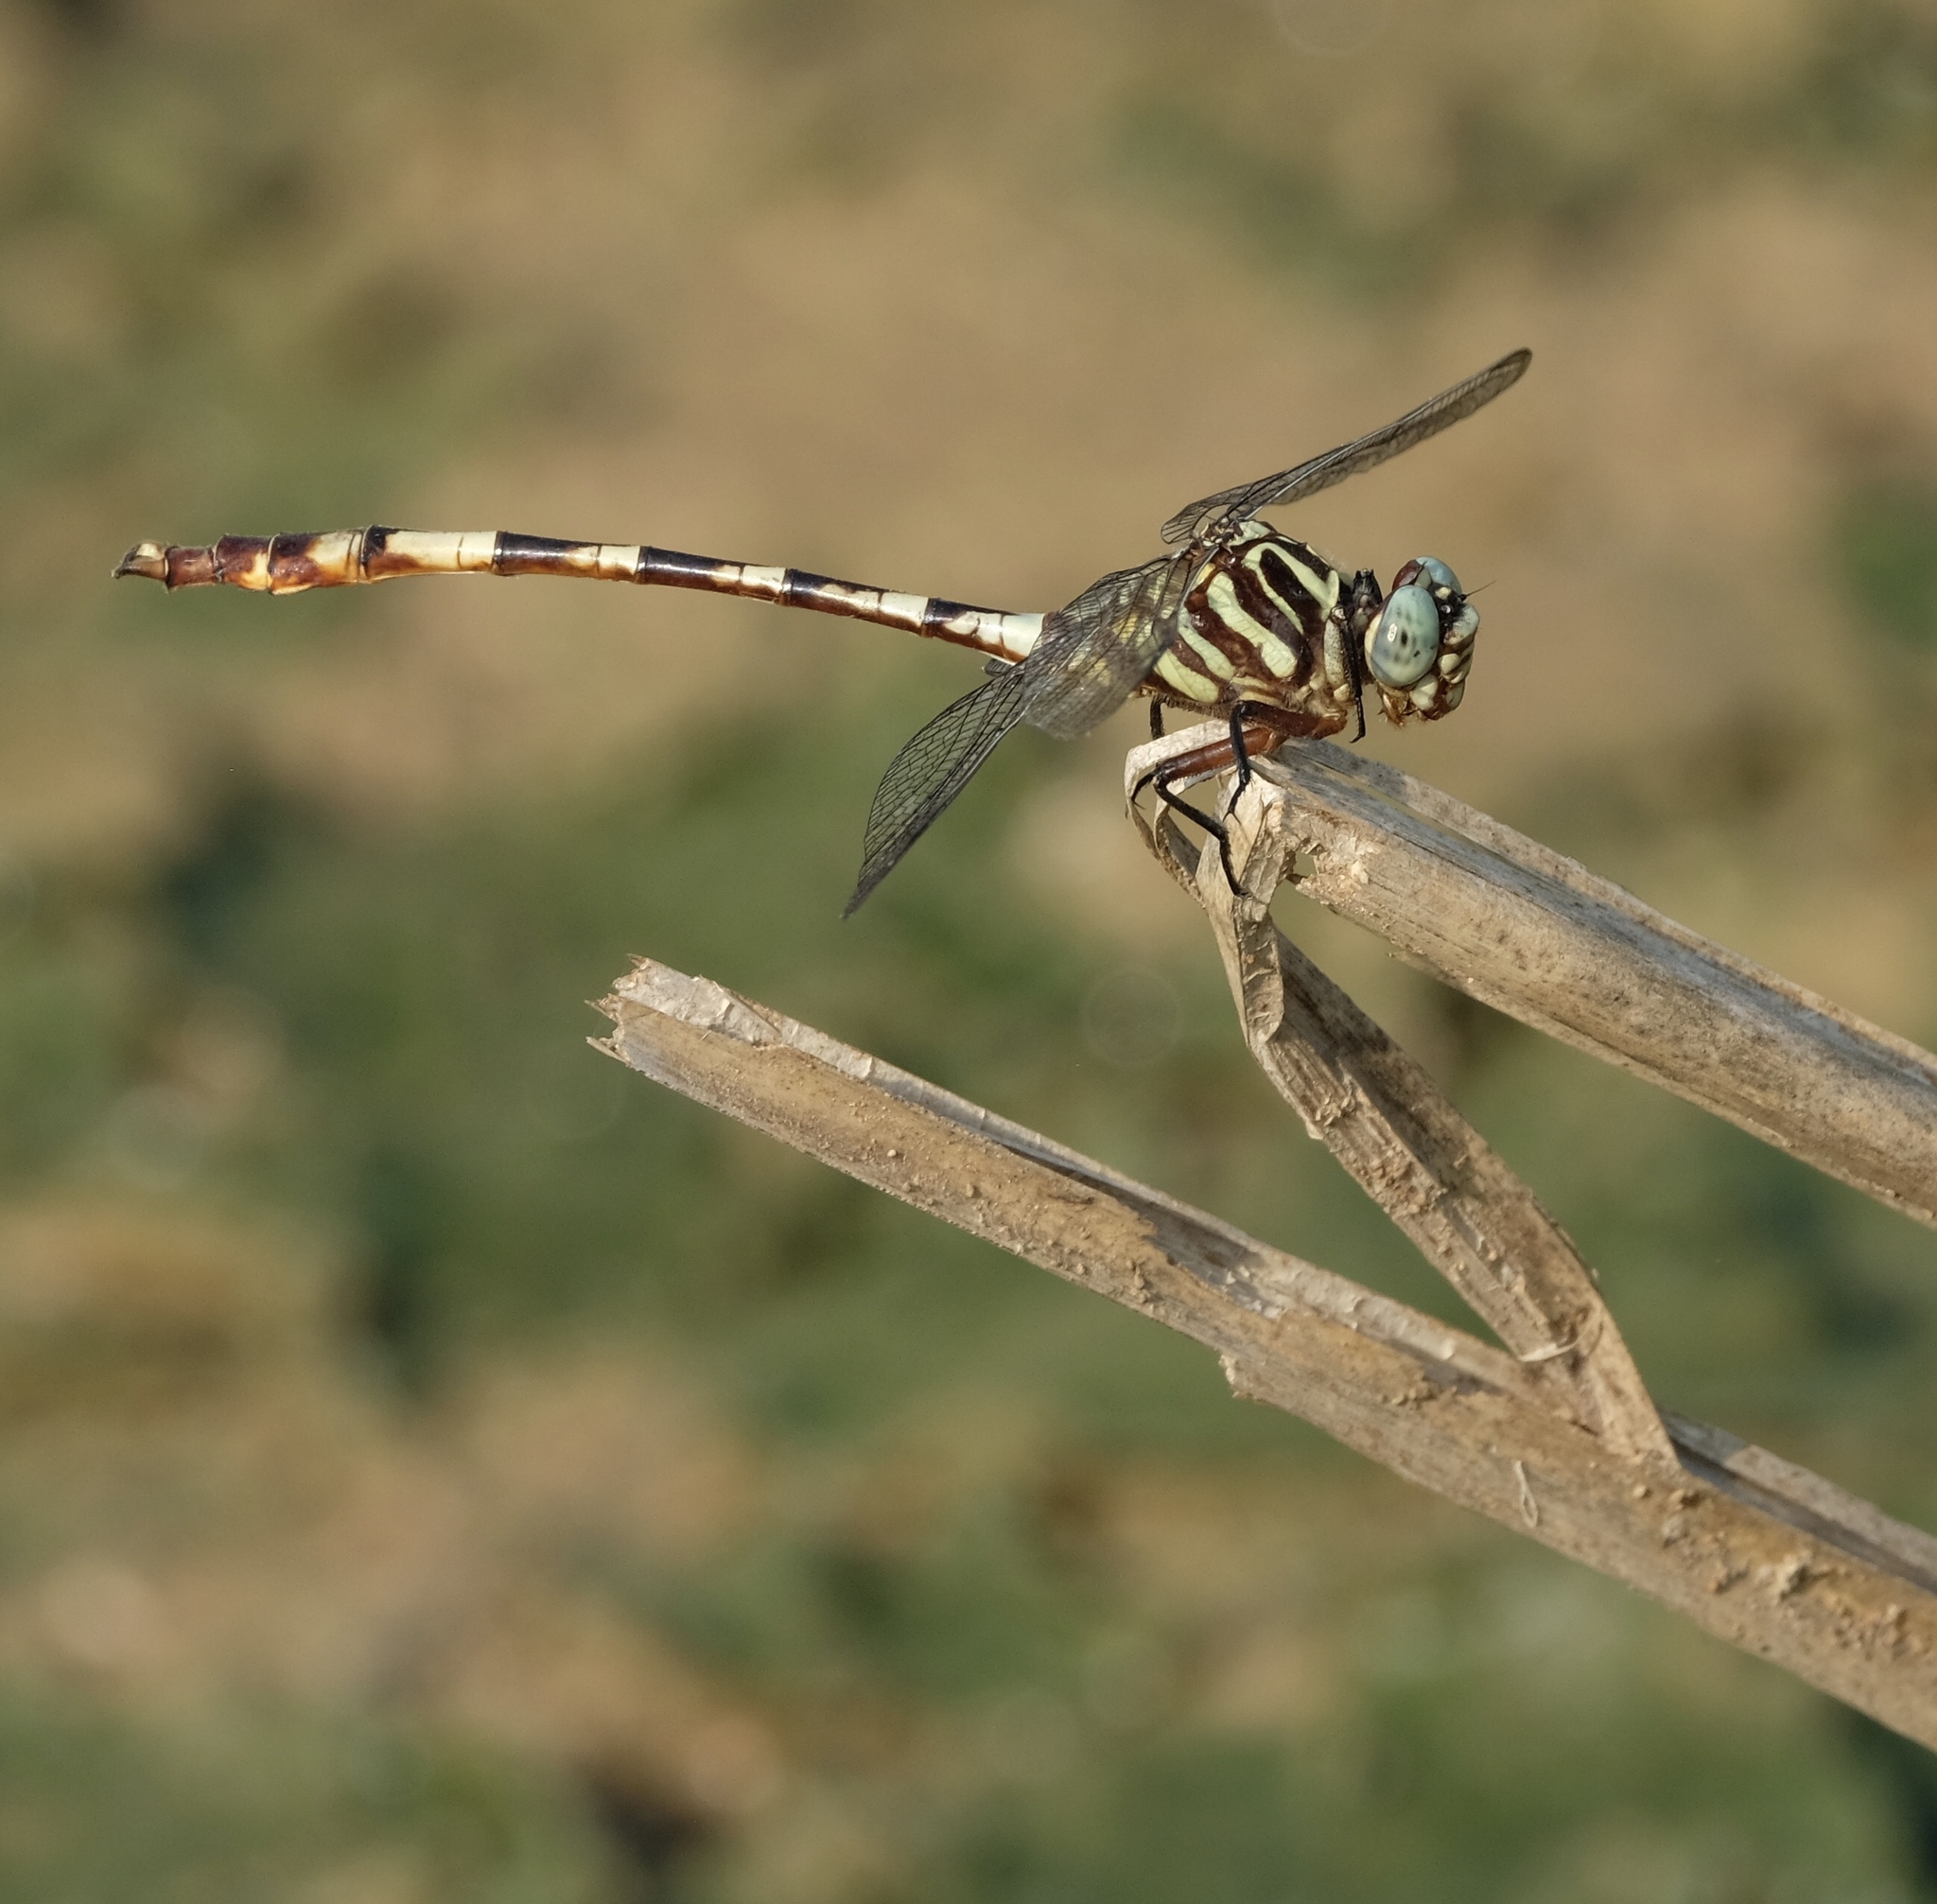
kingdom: Animalia
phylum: Arthropoda
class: Insecta
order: Odonata
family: Gomphidae
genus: Aphylla
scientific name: Aphylla angustifolia
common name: Broad-striped forceptail
